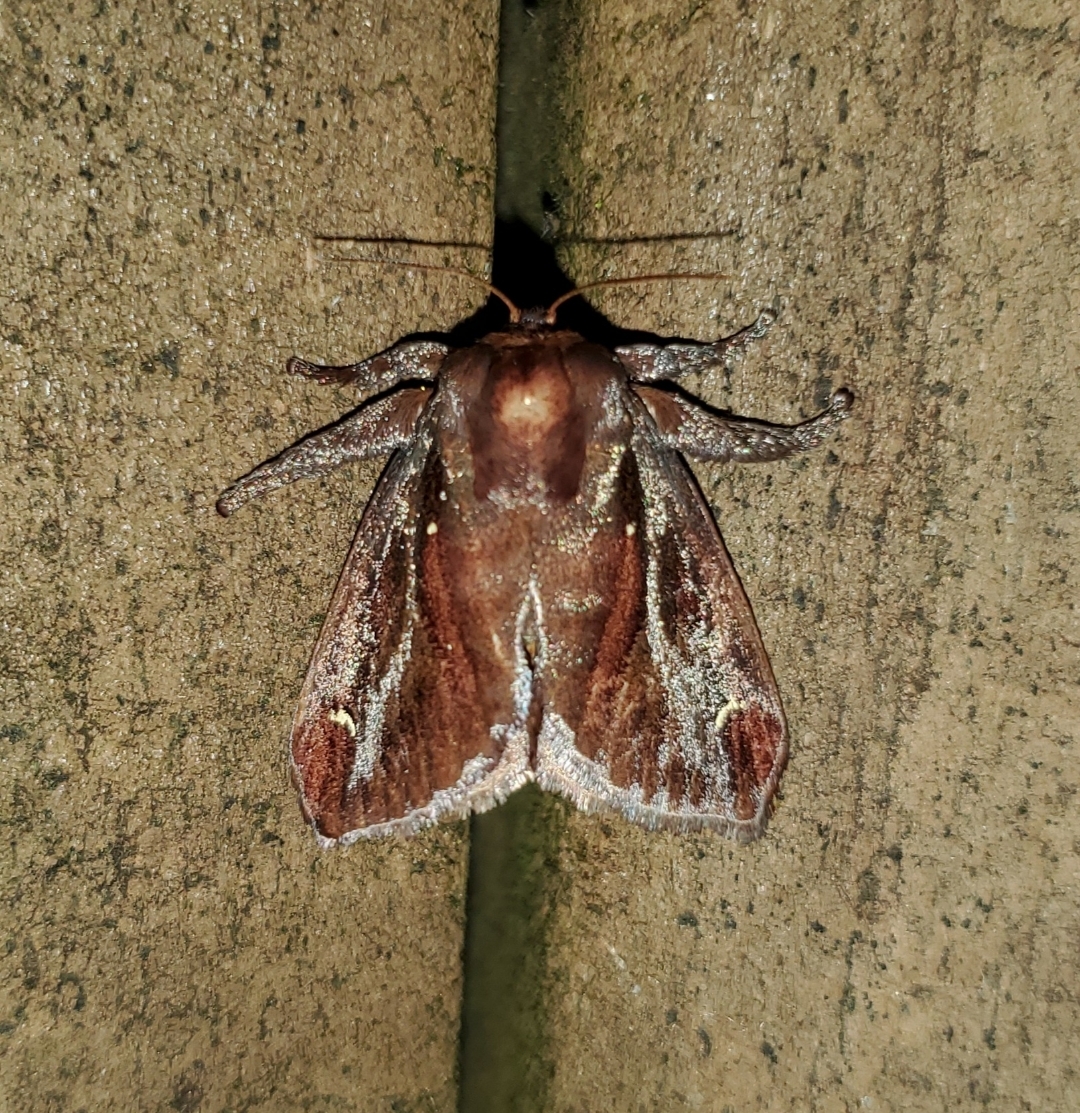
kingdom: Animalia
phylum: Arthropoda
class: Insecta
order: Lepidoptera
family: Limacodidae
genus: Acharia
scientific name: Acharia stimulea
